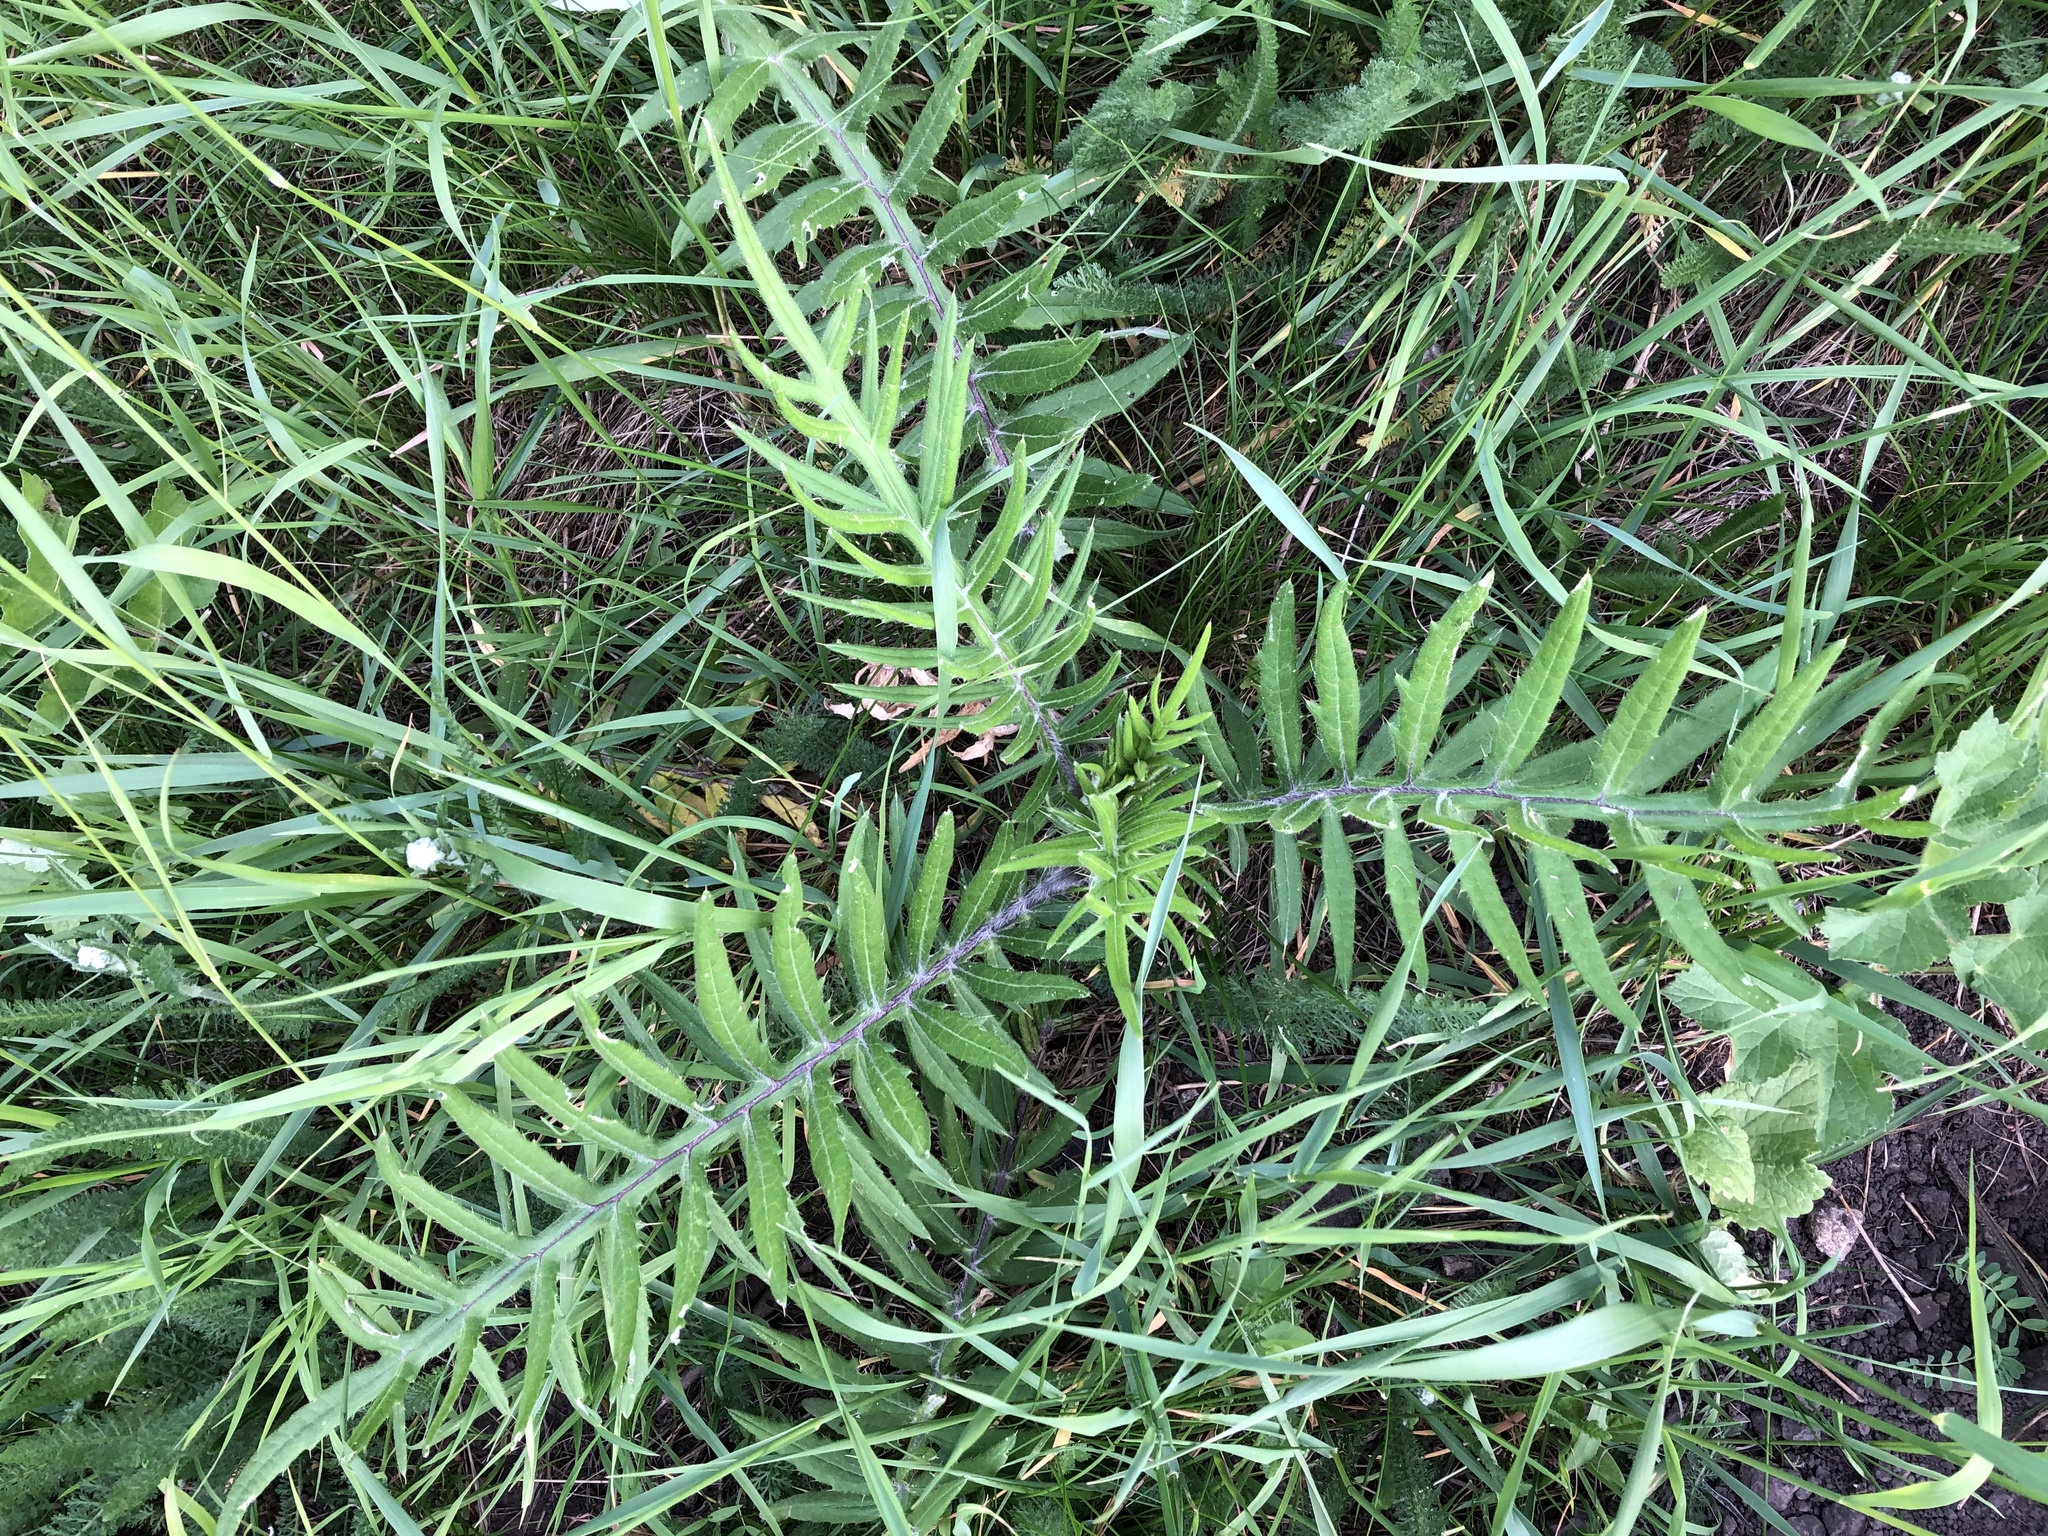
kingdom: Plantae
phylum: Tracheophyta
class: Magnoliopsida
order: Asterales
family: Asteraceae
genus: Lophiolepis
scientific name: Lophiolepis eriophora
